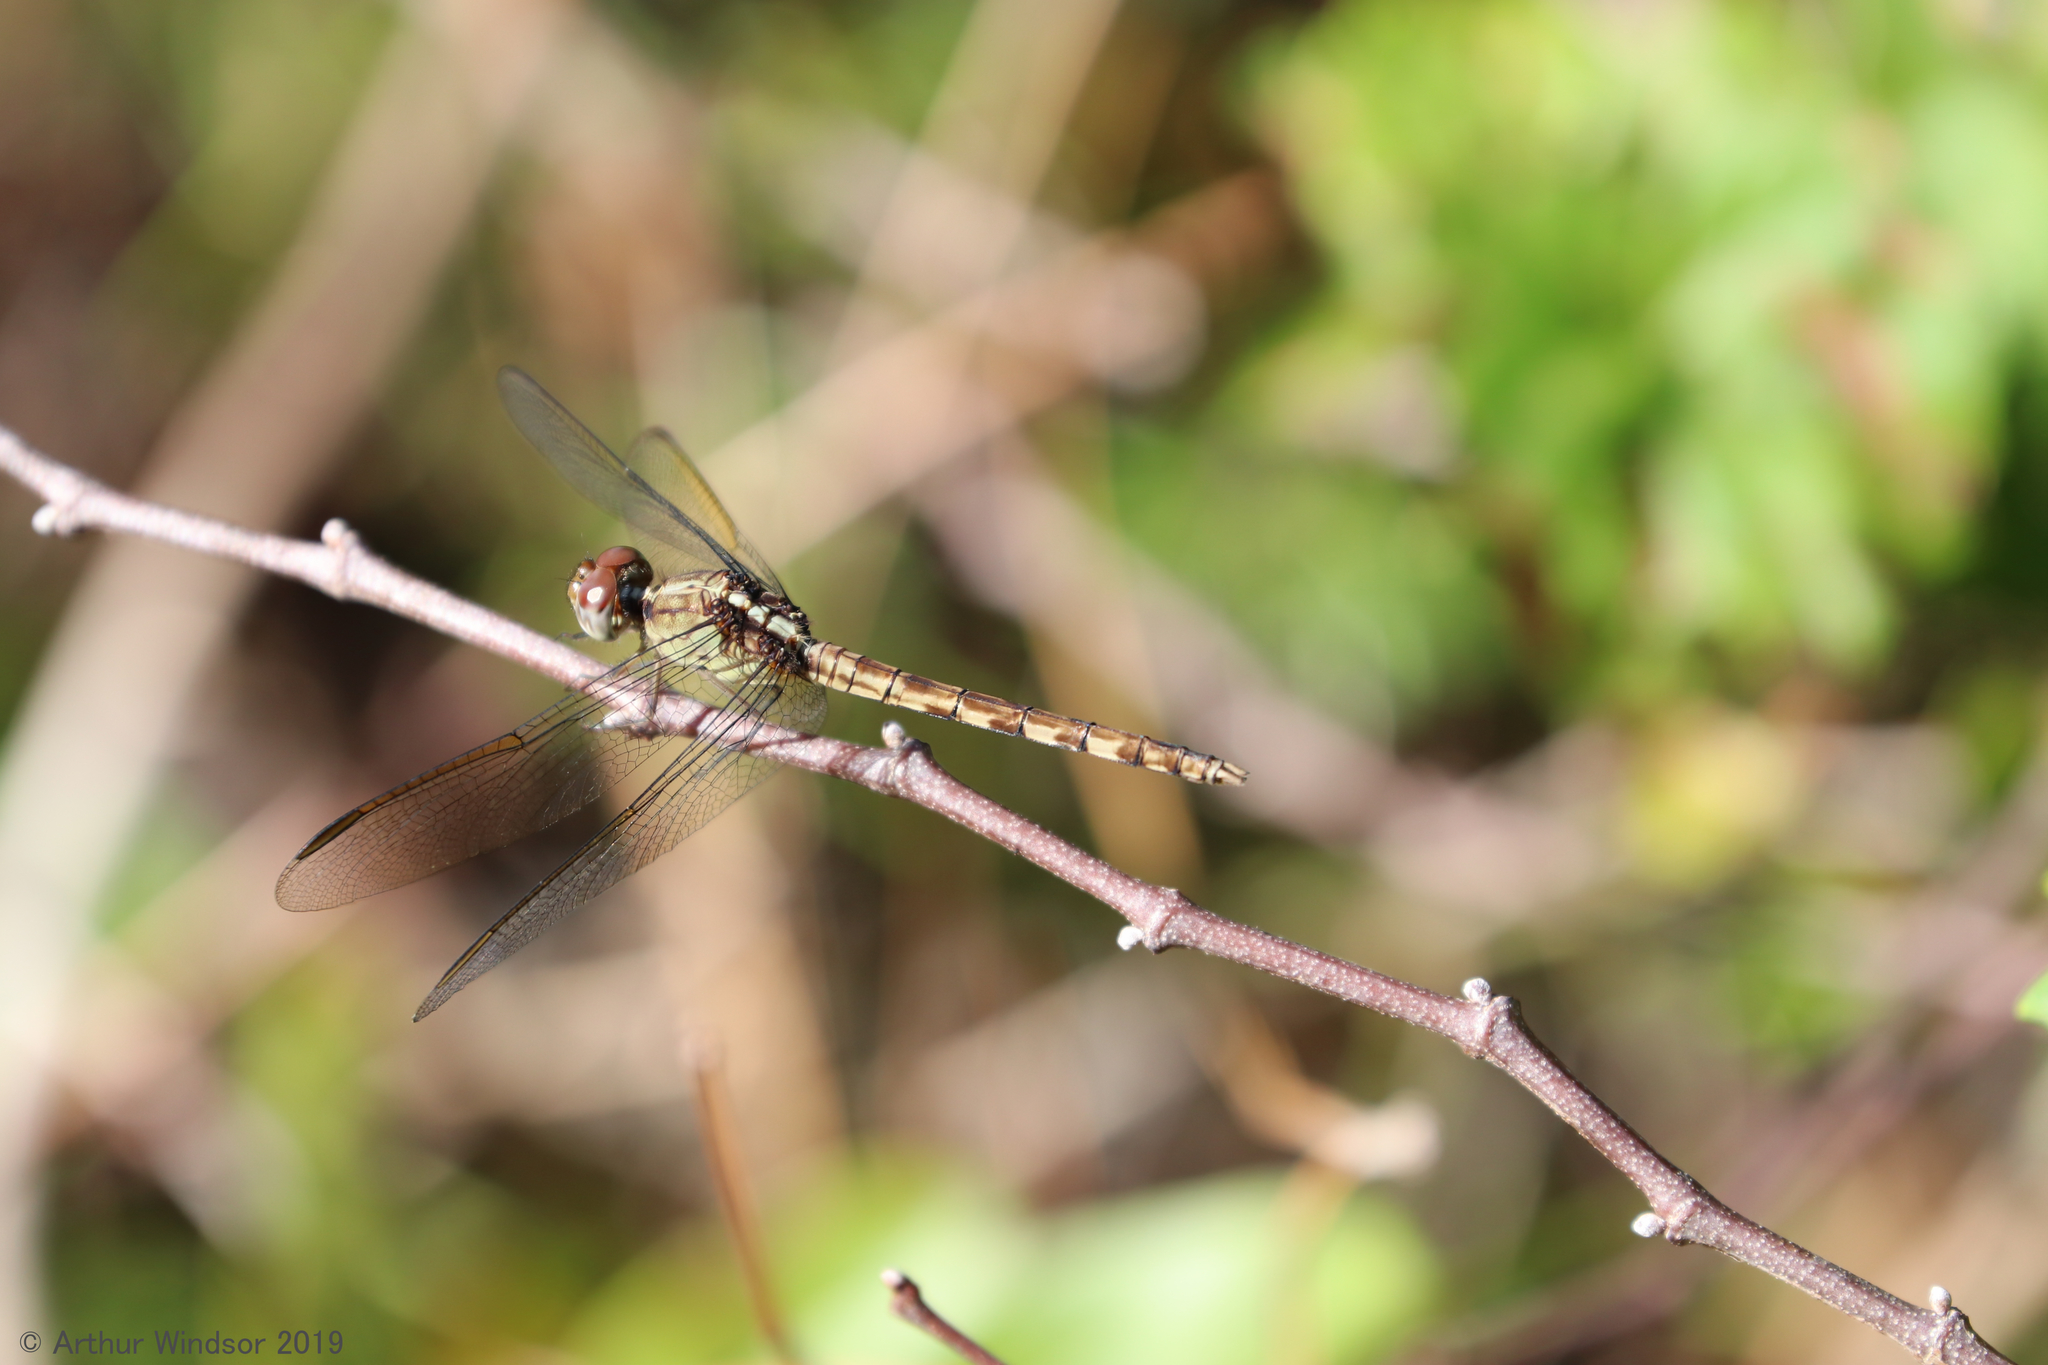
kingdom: Animalia
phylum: Arthropoda
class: Insecta
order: Odonata
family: Libellulidae
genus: Erythrodiplax
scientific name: Erythrodiplax umbrata
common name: Band-winged dragonlet
